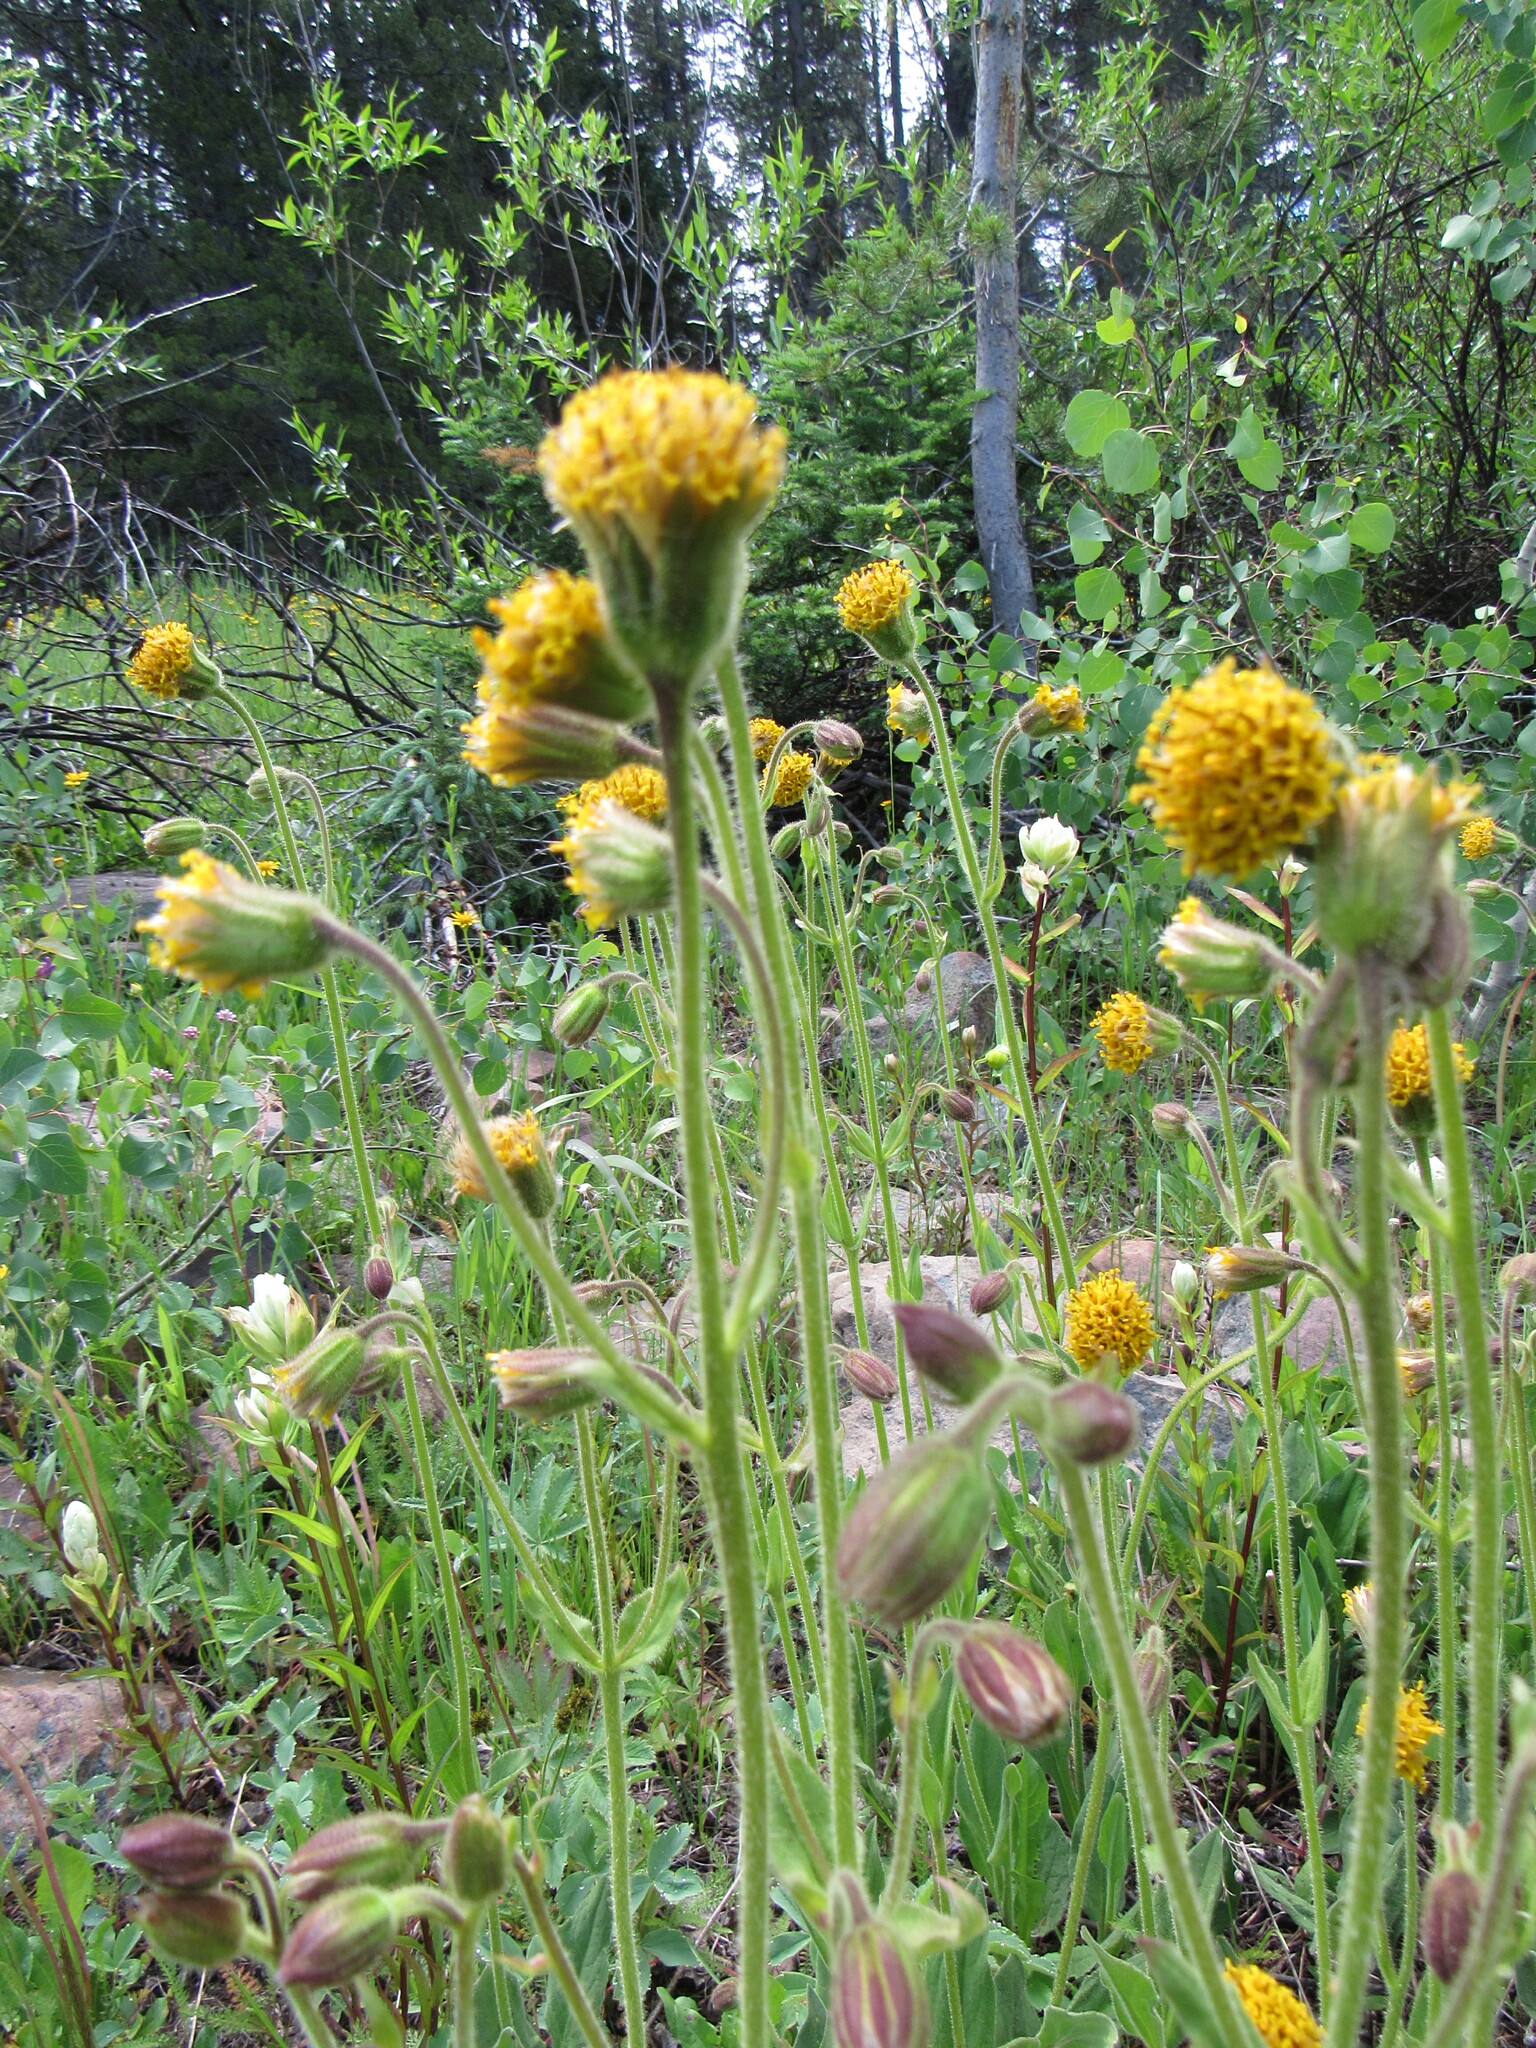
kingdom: Plantae
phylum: Tracheophyta
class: Magnoliopsida
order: Asterales
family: Asteraceae
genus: Arnica
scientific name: Arnica parryi
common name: Parry's arnica
